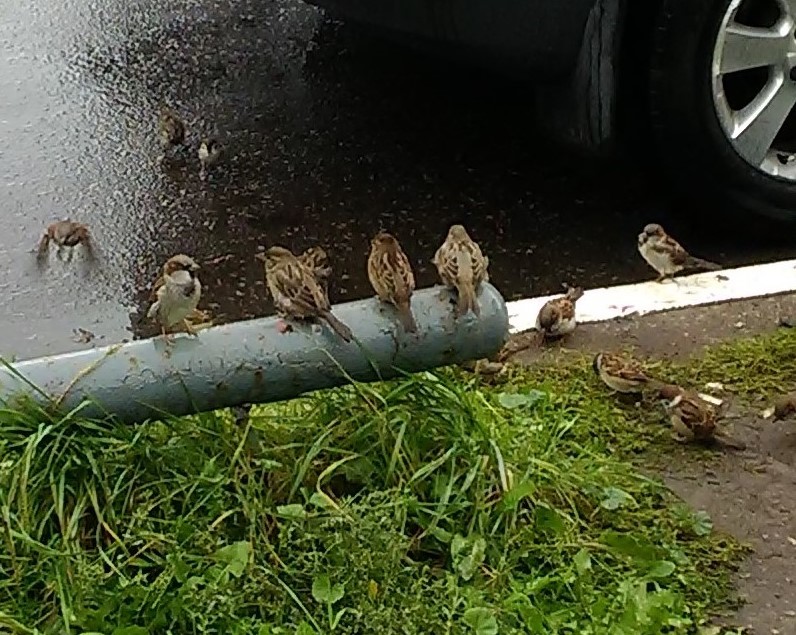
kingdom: Animalia
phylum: Chordata
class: Aves
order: Passeriformes
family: Passeridae
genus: Passer
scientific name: Passer domesticus
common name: House sparrow
